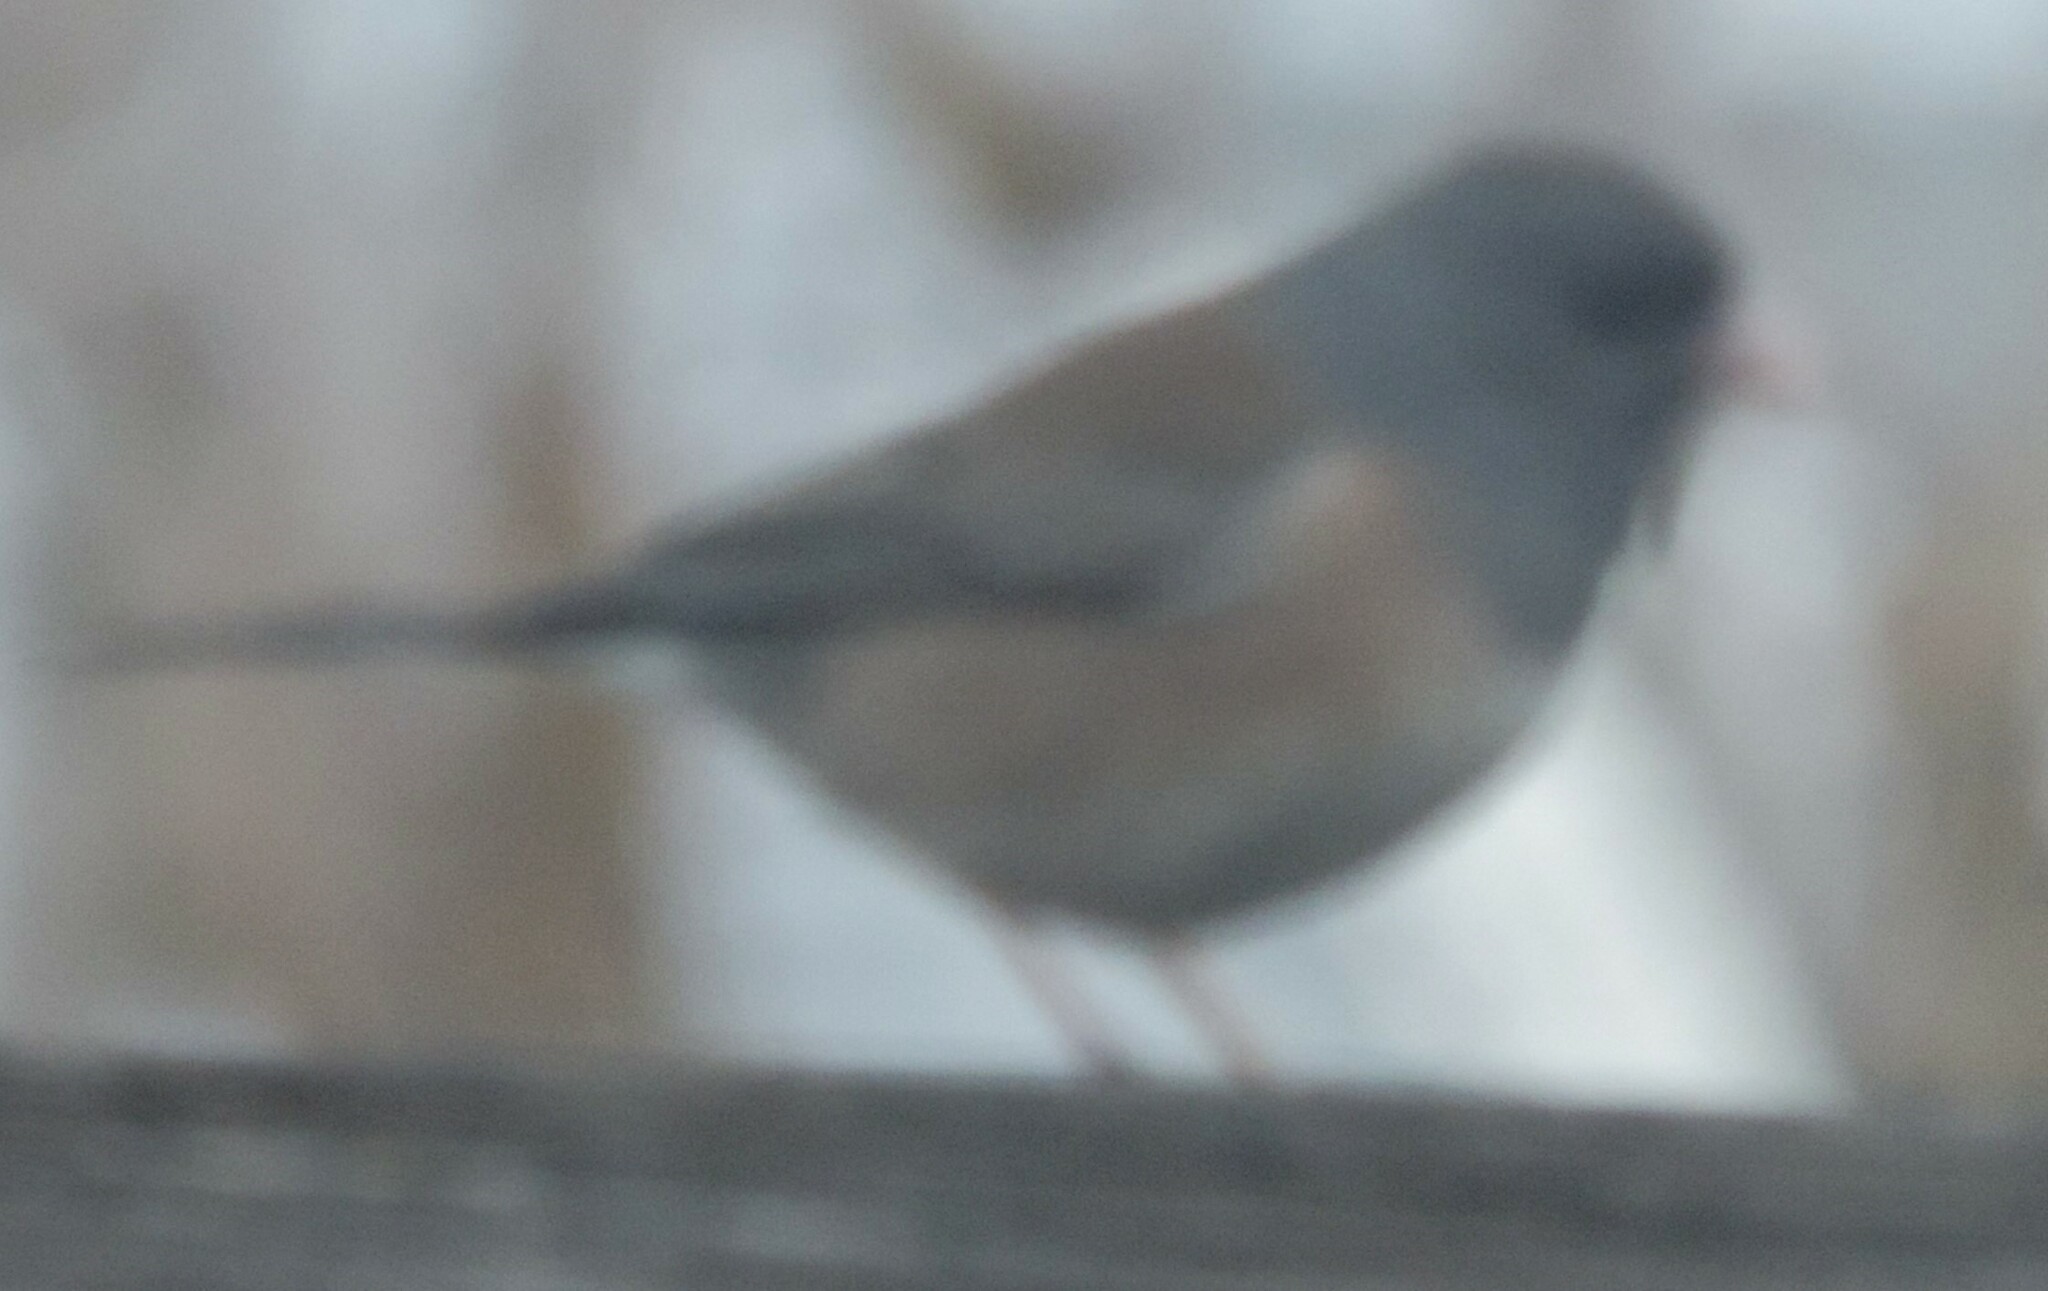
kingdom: Animalia
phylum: Chordata
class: Aves
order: Passeriformes
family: Passerellidae
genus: Junco
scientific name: Junco hyemalis
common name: Dark-eyed junco
